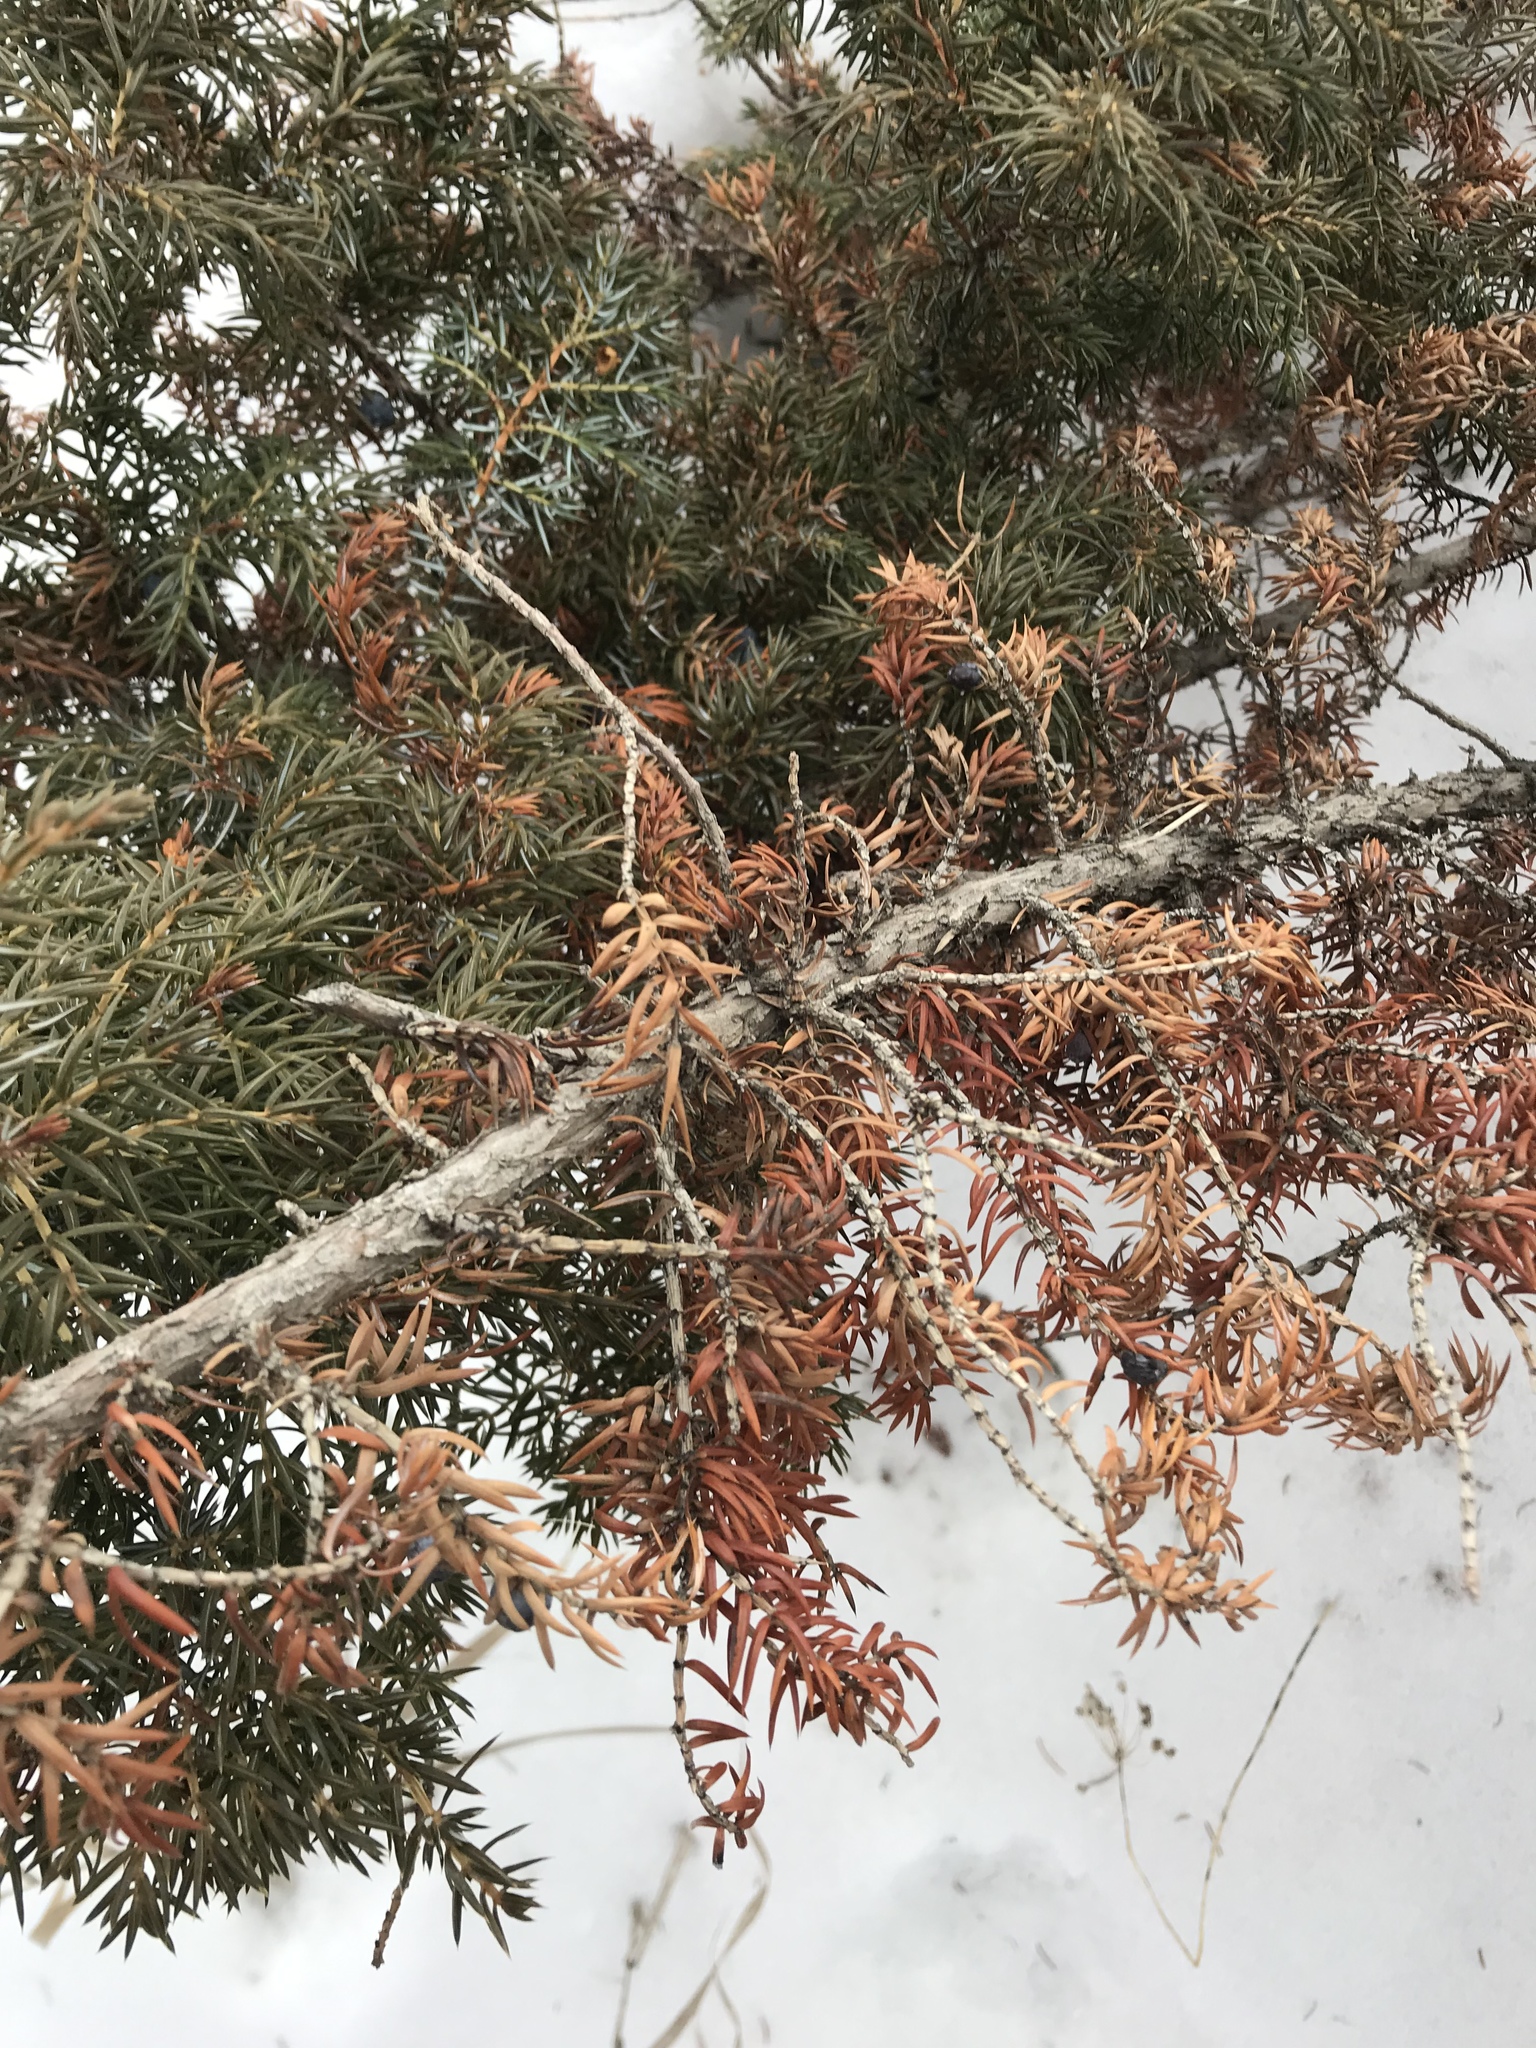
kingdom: Plantae
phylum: Tracheophyta
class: Pinopsida
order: Pinales
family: Cupressaceae
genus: Juniperus
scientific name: Juniperus communis
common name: Common juniper
